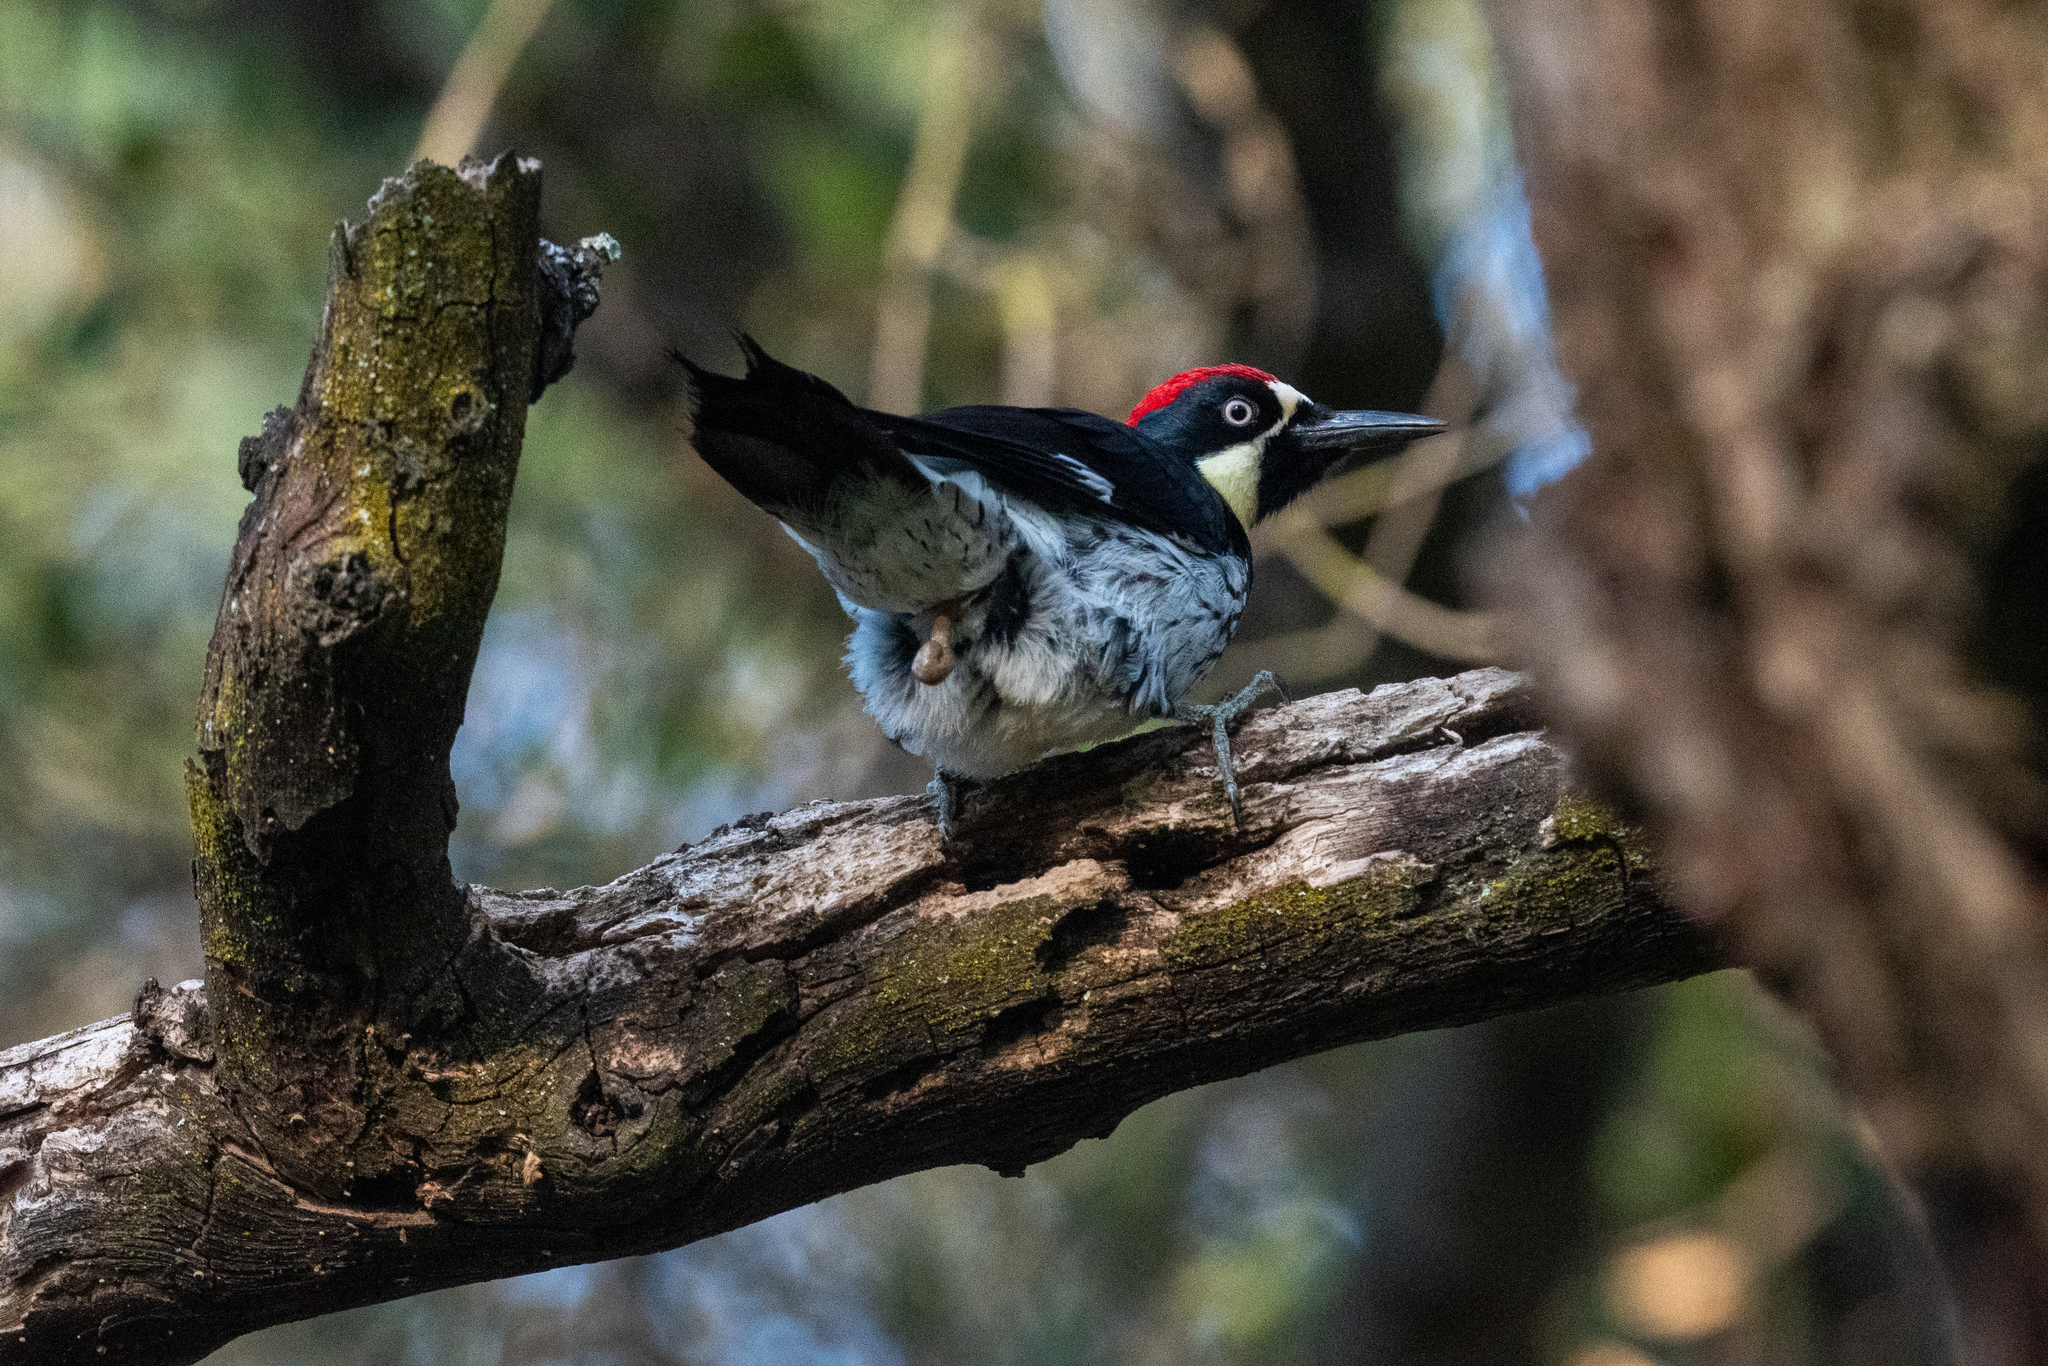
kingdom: Animalia
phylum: Chordata
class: Aves
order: Piciformes
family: Picidae
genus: Melanerpes
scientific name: Melanerpes formicivorus
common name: Acorn woodpecker
